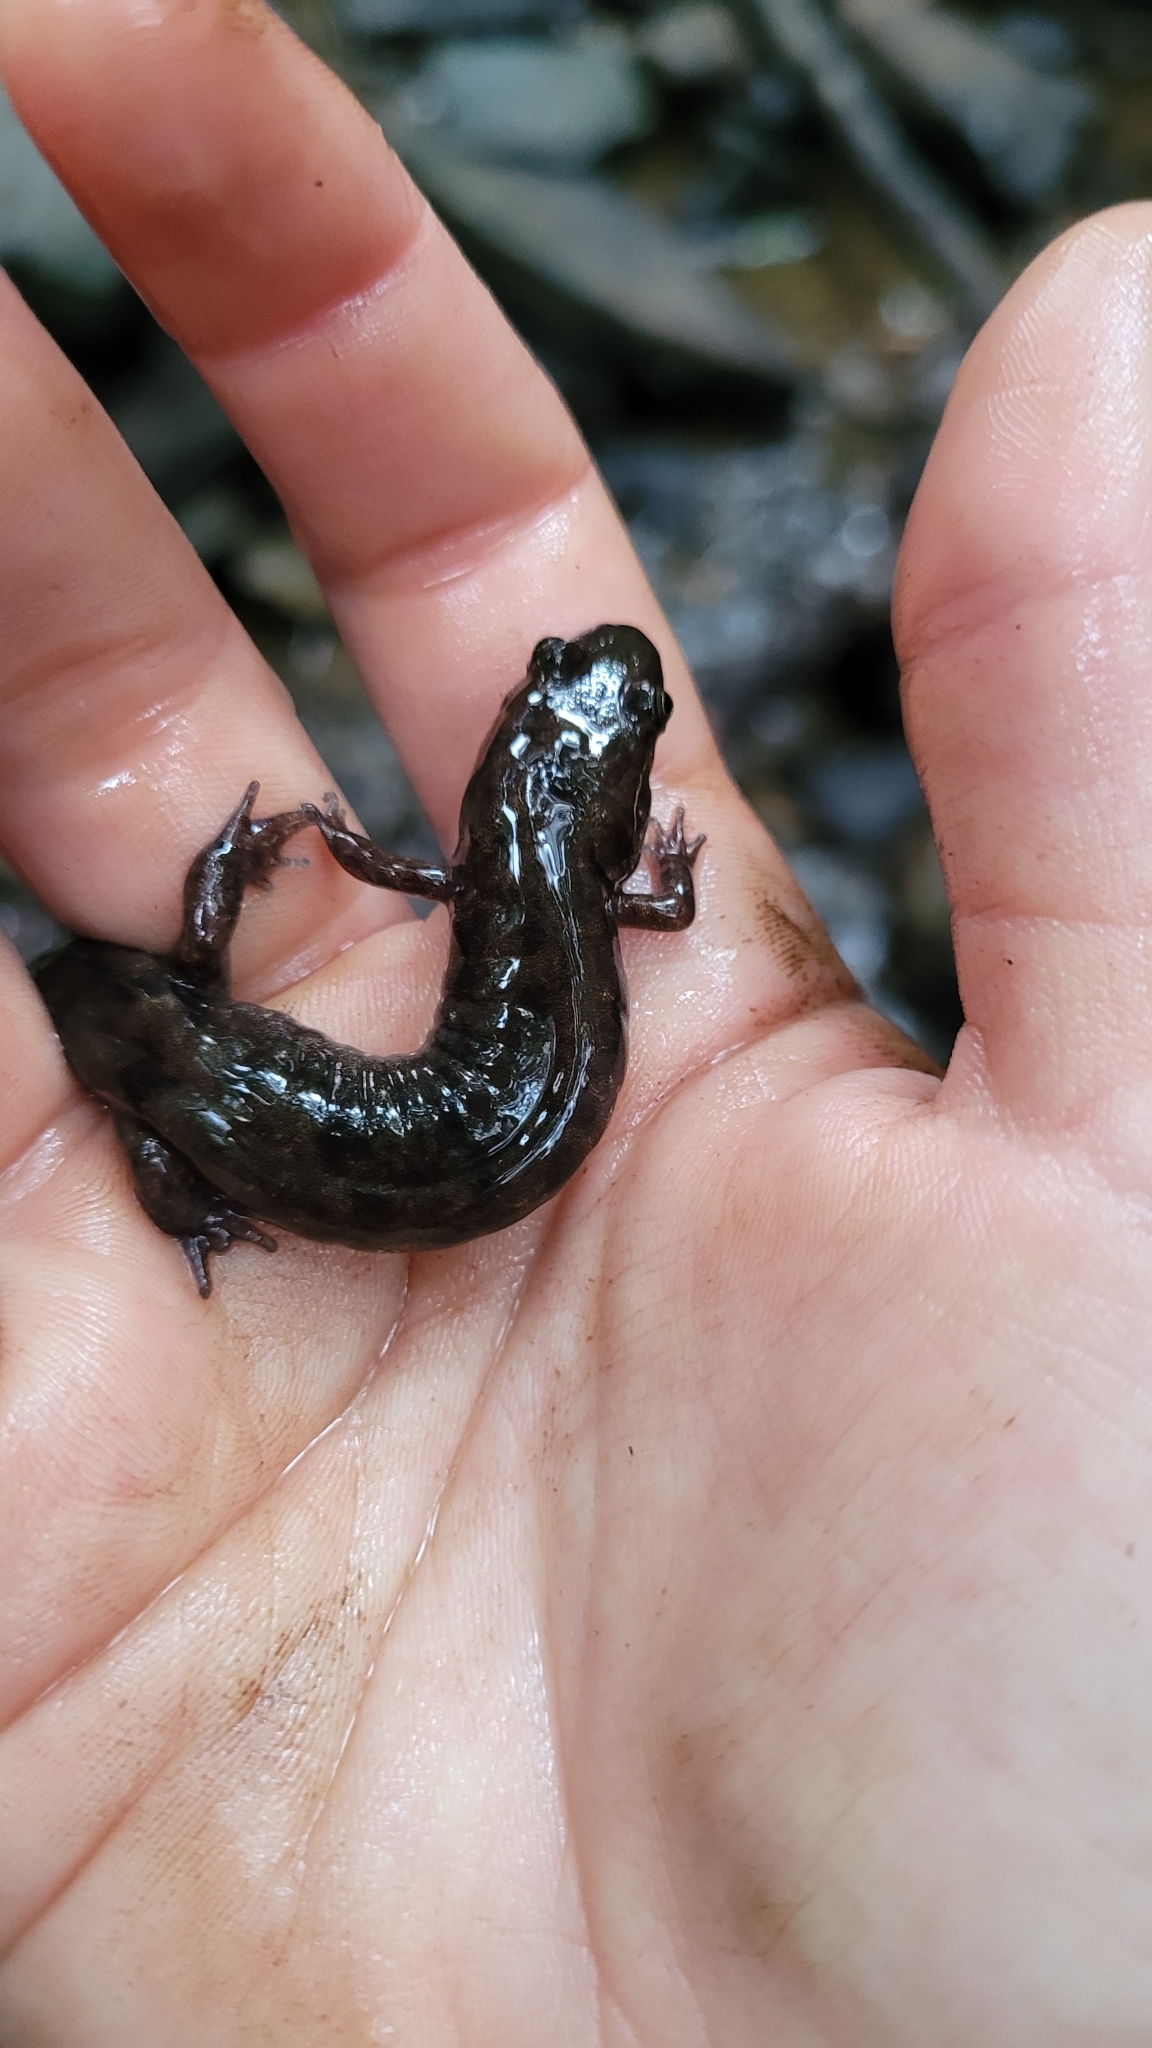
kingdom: Animalia
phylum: Chordata
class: Amphibia
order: Caudata
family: Plethodontidae
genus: Desmognathus
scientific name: Desmognathus monticola
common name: Seal salamander
